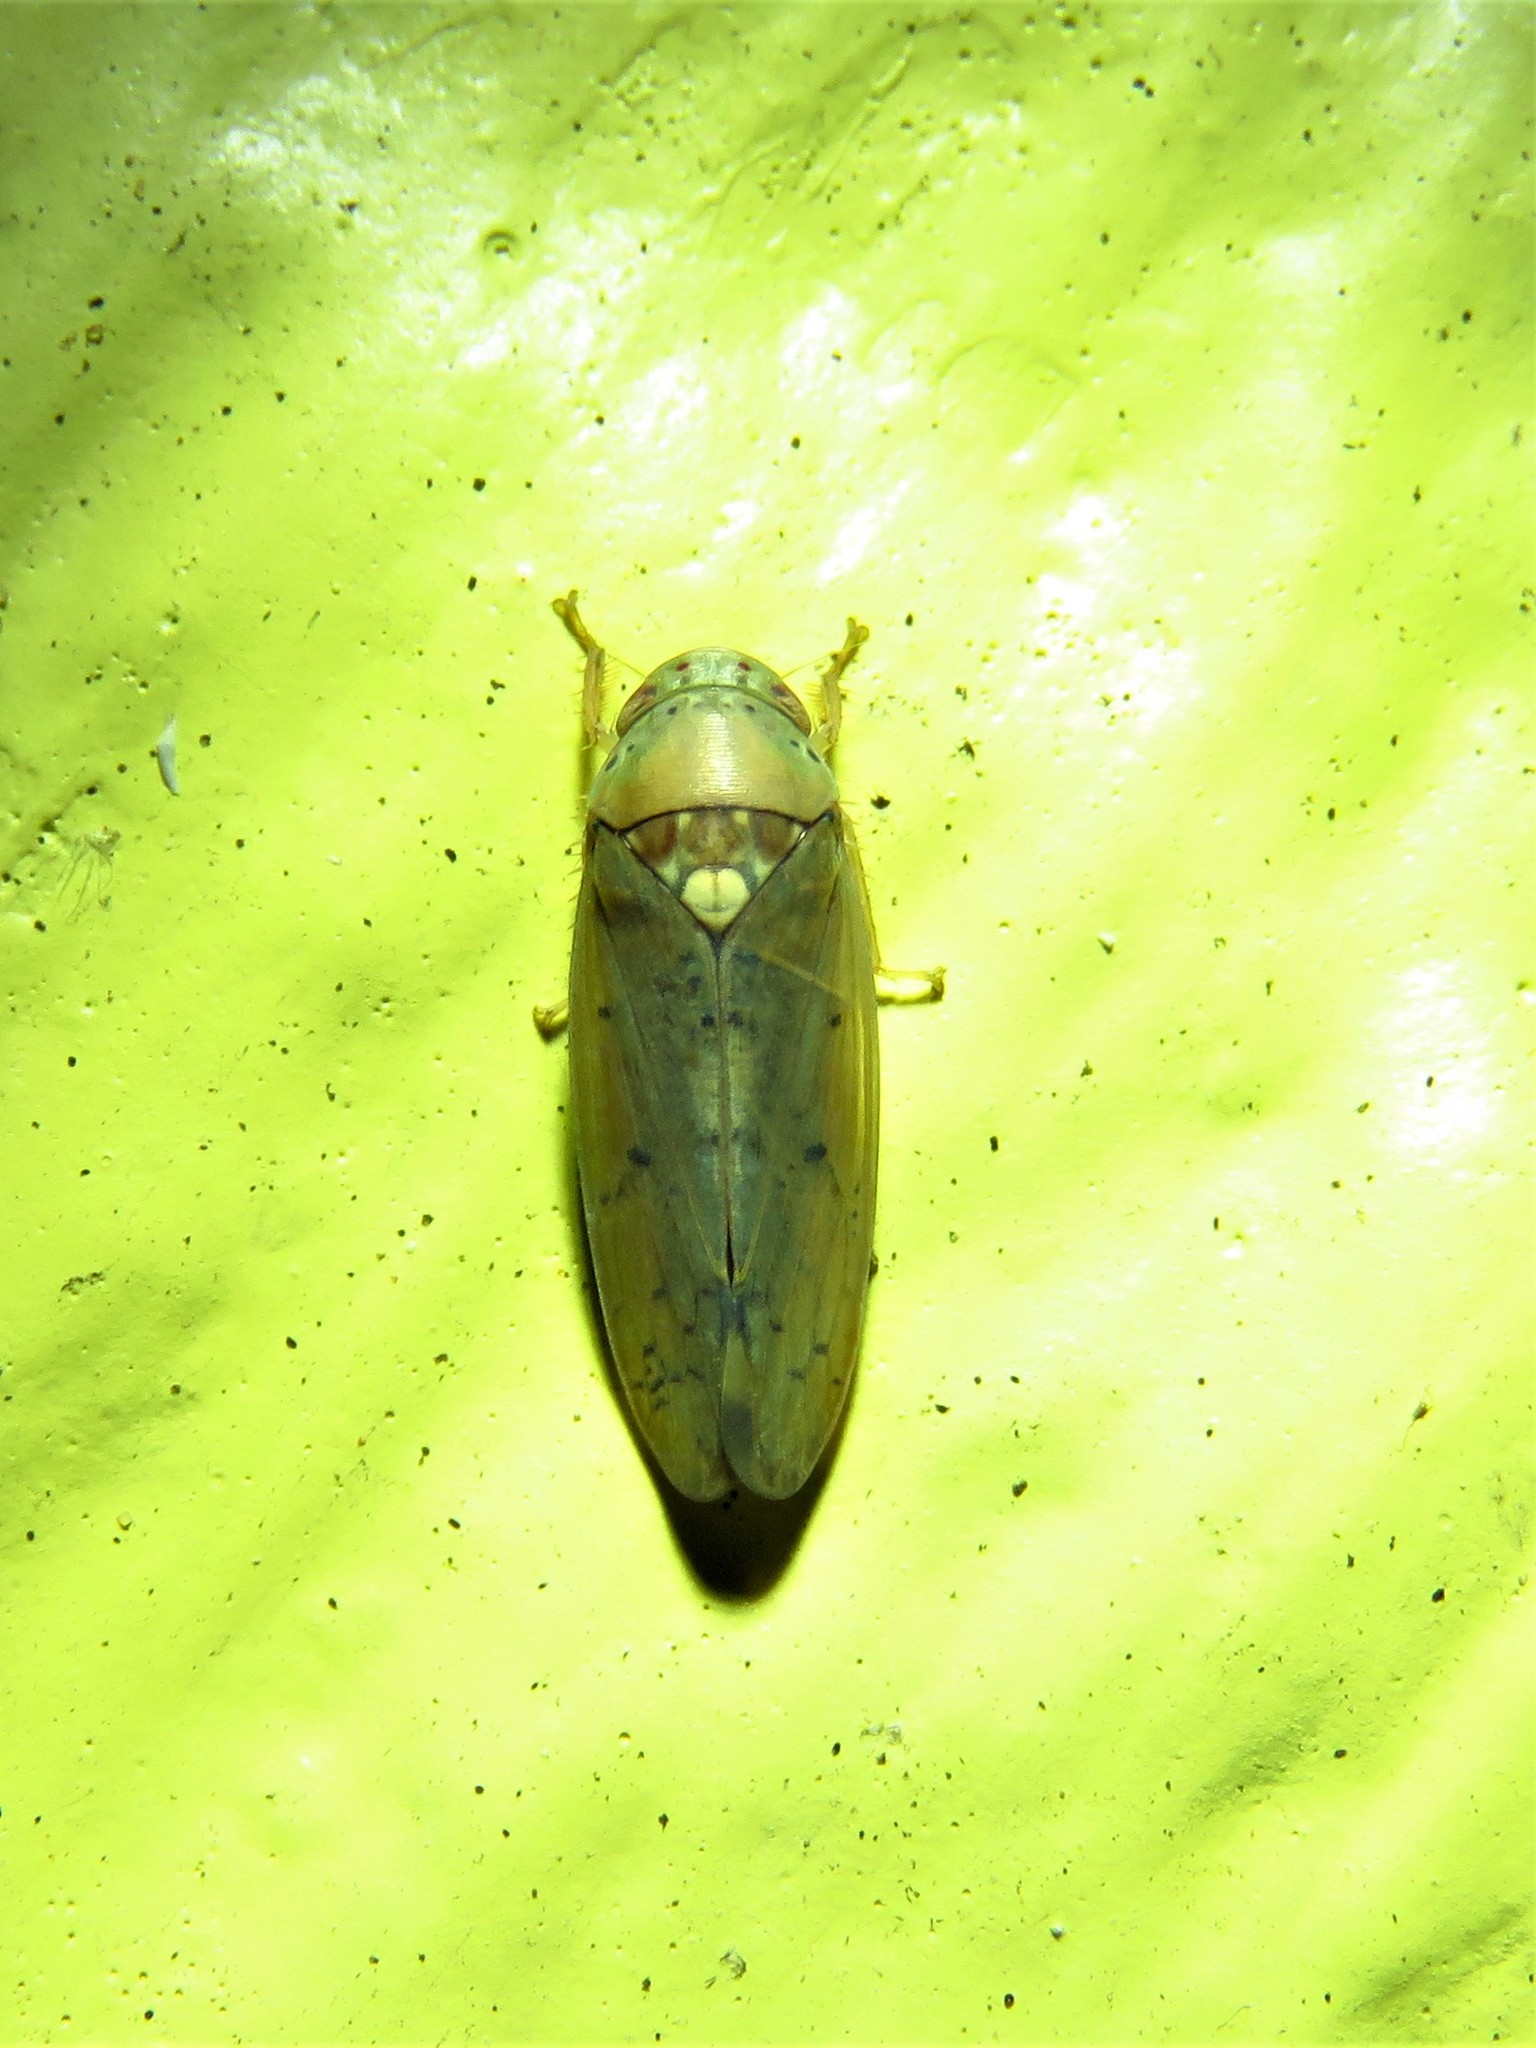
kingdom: Animalia
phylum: Arthropoda
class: Insecta
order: Hemiptera
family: Cicadellidae
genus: Ponana
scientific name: Ponana quadralaba
